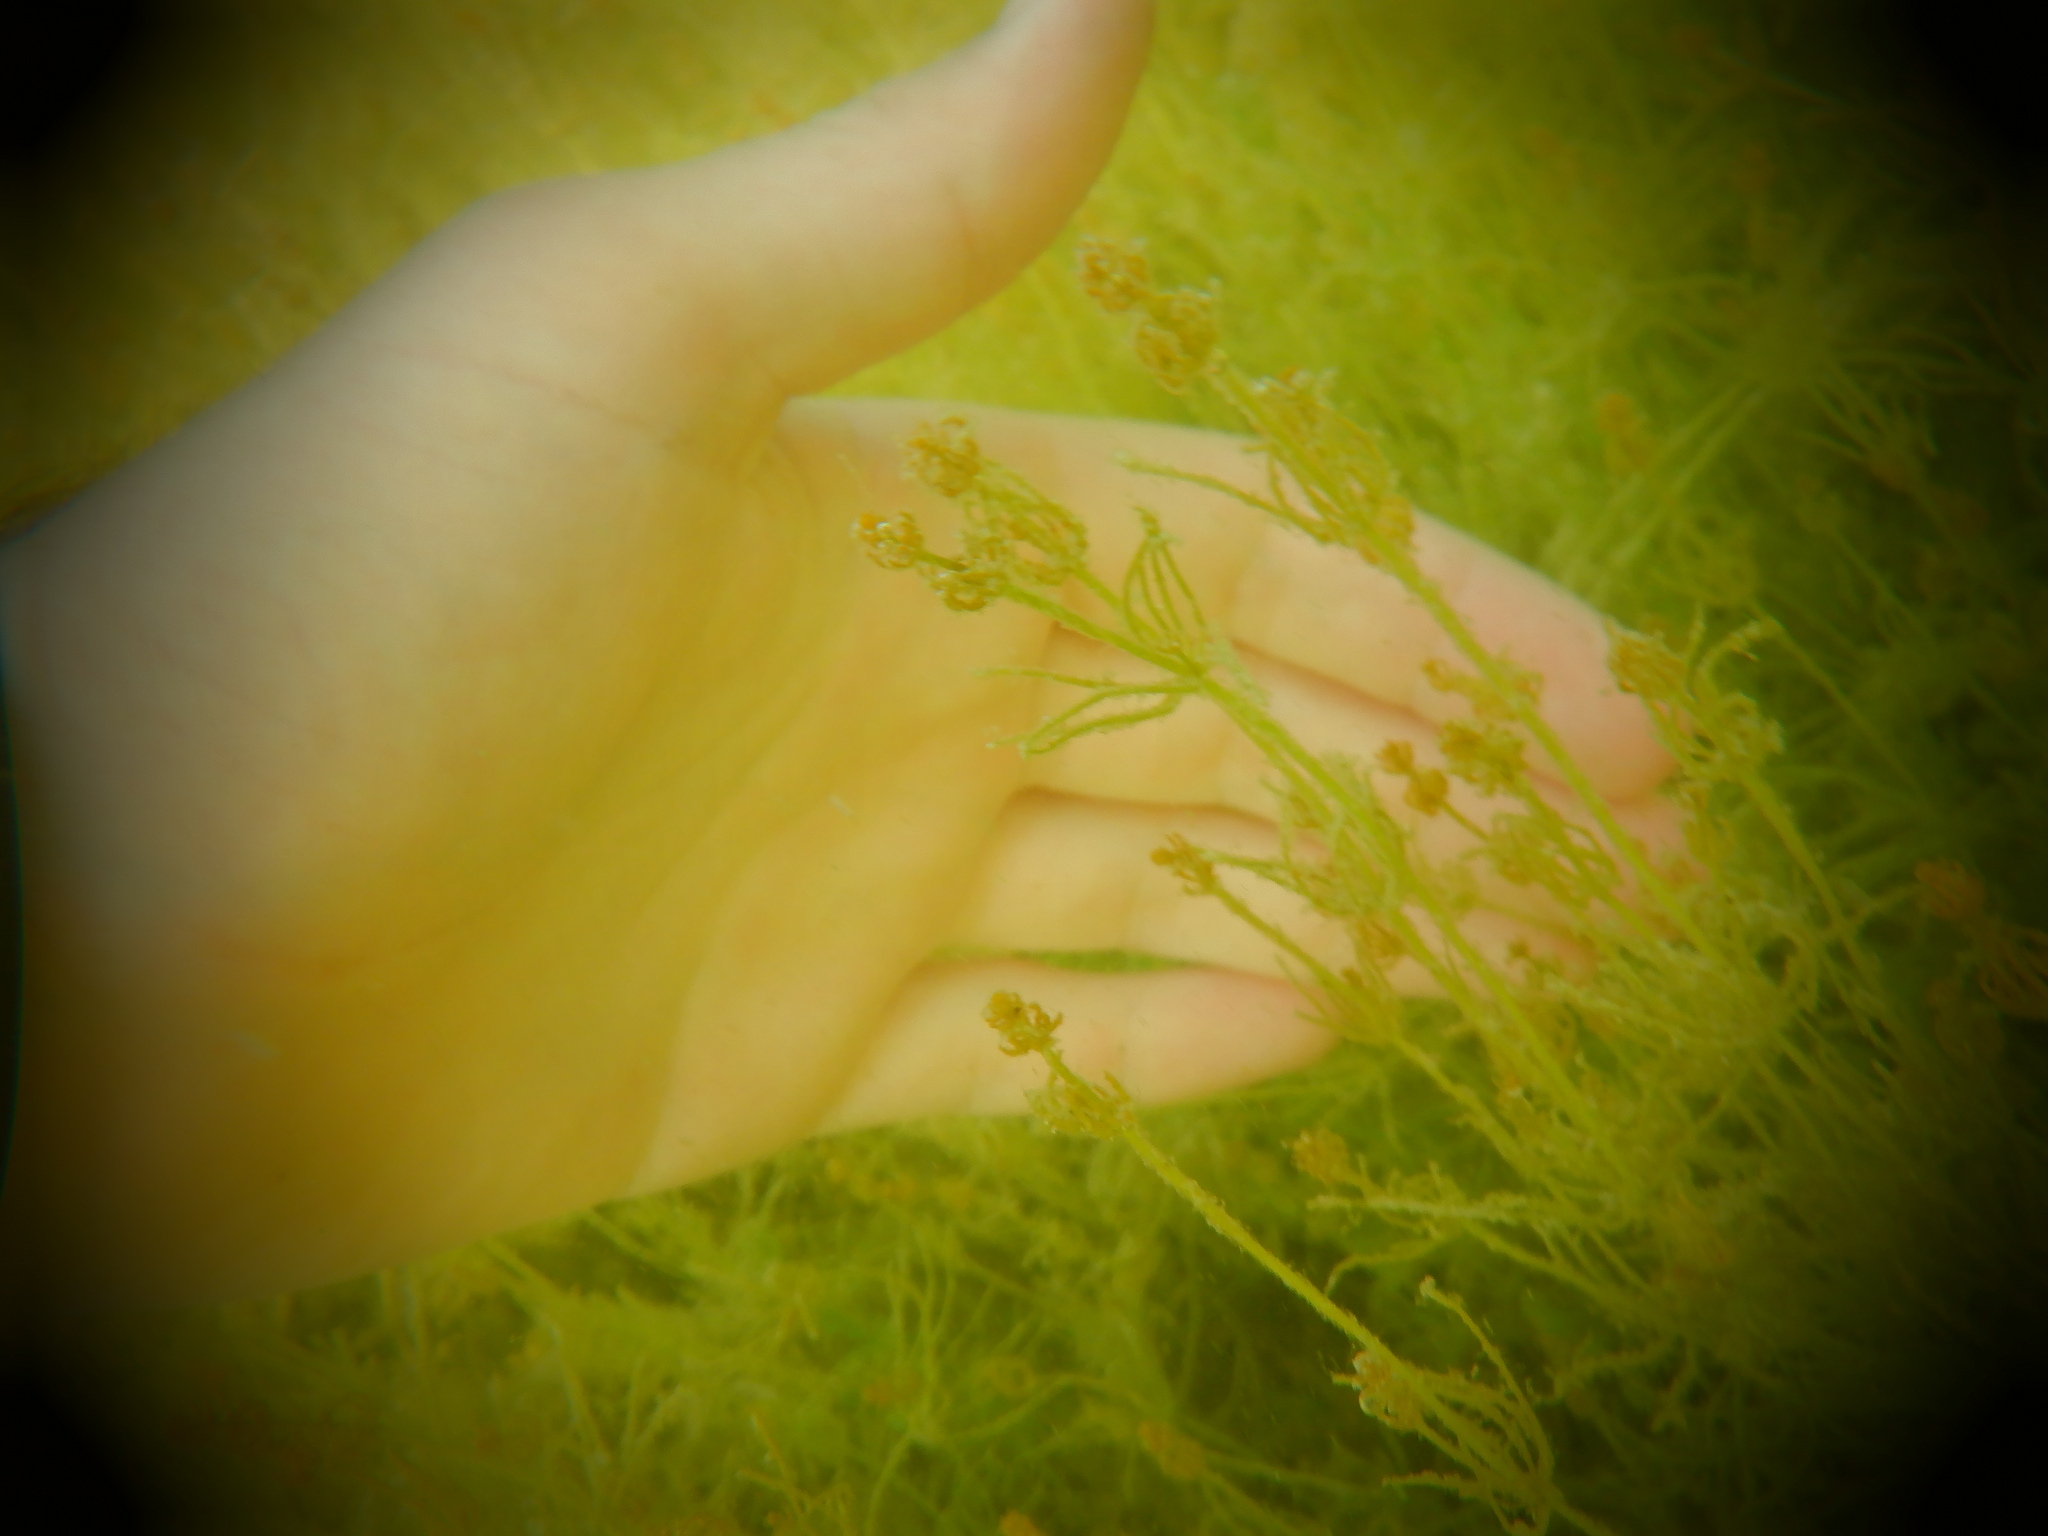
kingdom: Plantae
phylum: Charophyta
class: Charophyceae
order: Charales
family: Characeae
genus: Chara
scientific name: Chara
